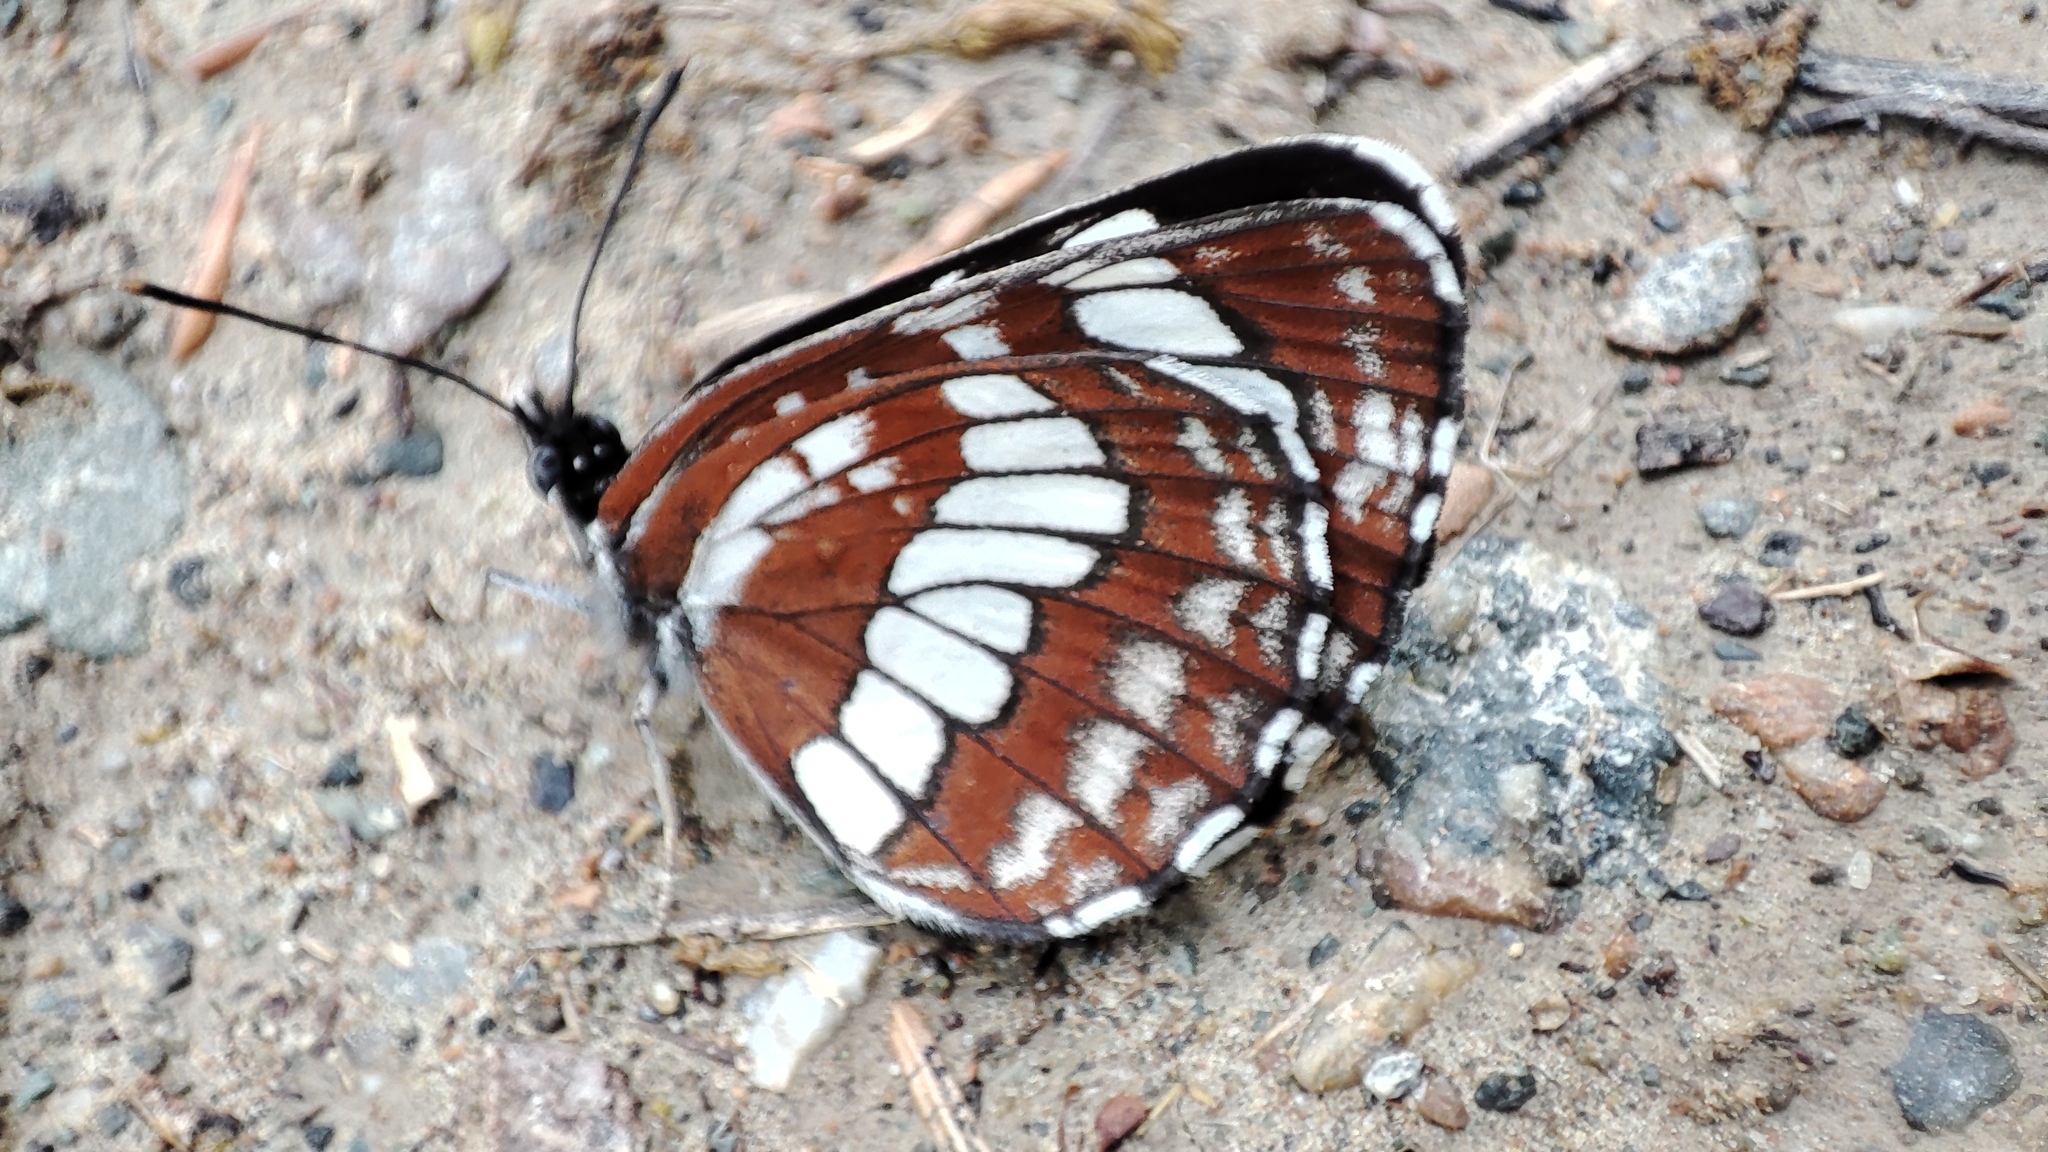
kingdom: Animalia
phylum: Arthropoda
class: Insecta
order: Lepidoptera
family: Nymphalidae
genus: Neptis
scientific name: Neptis rivularis
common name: Hungarian glider
